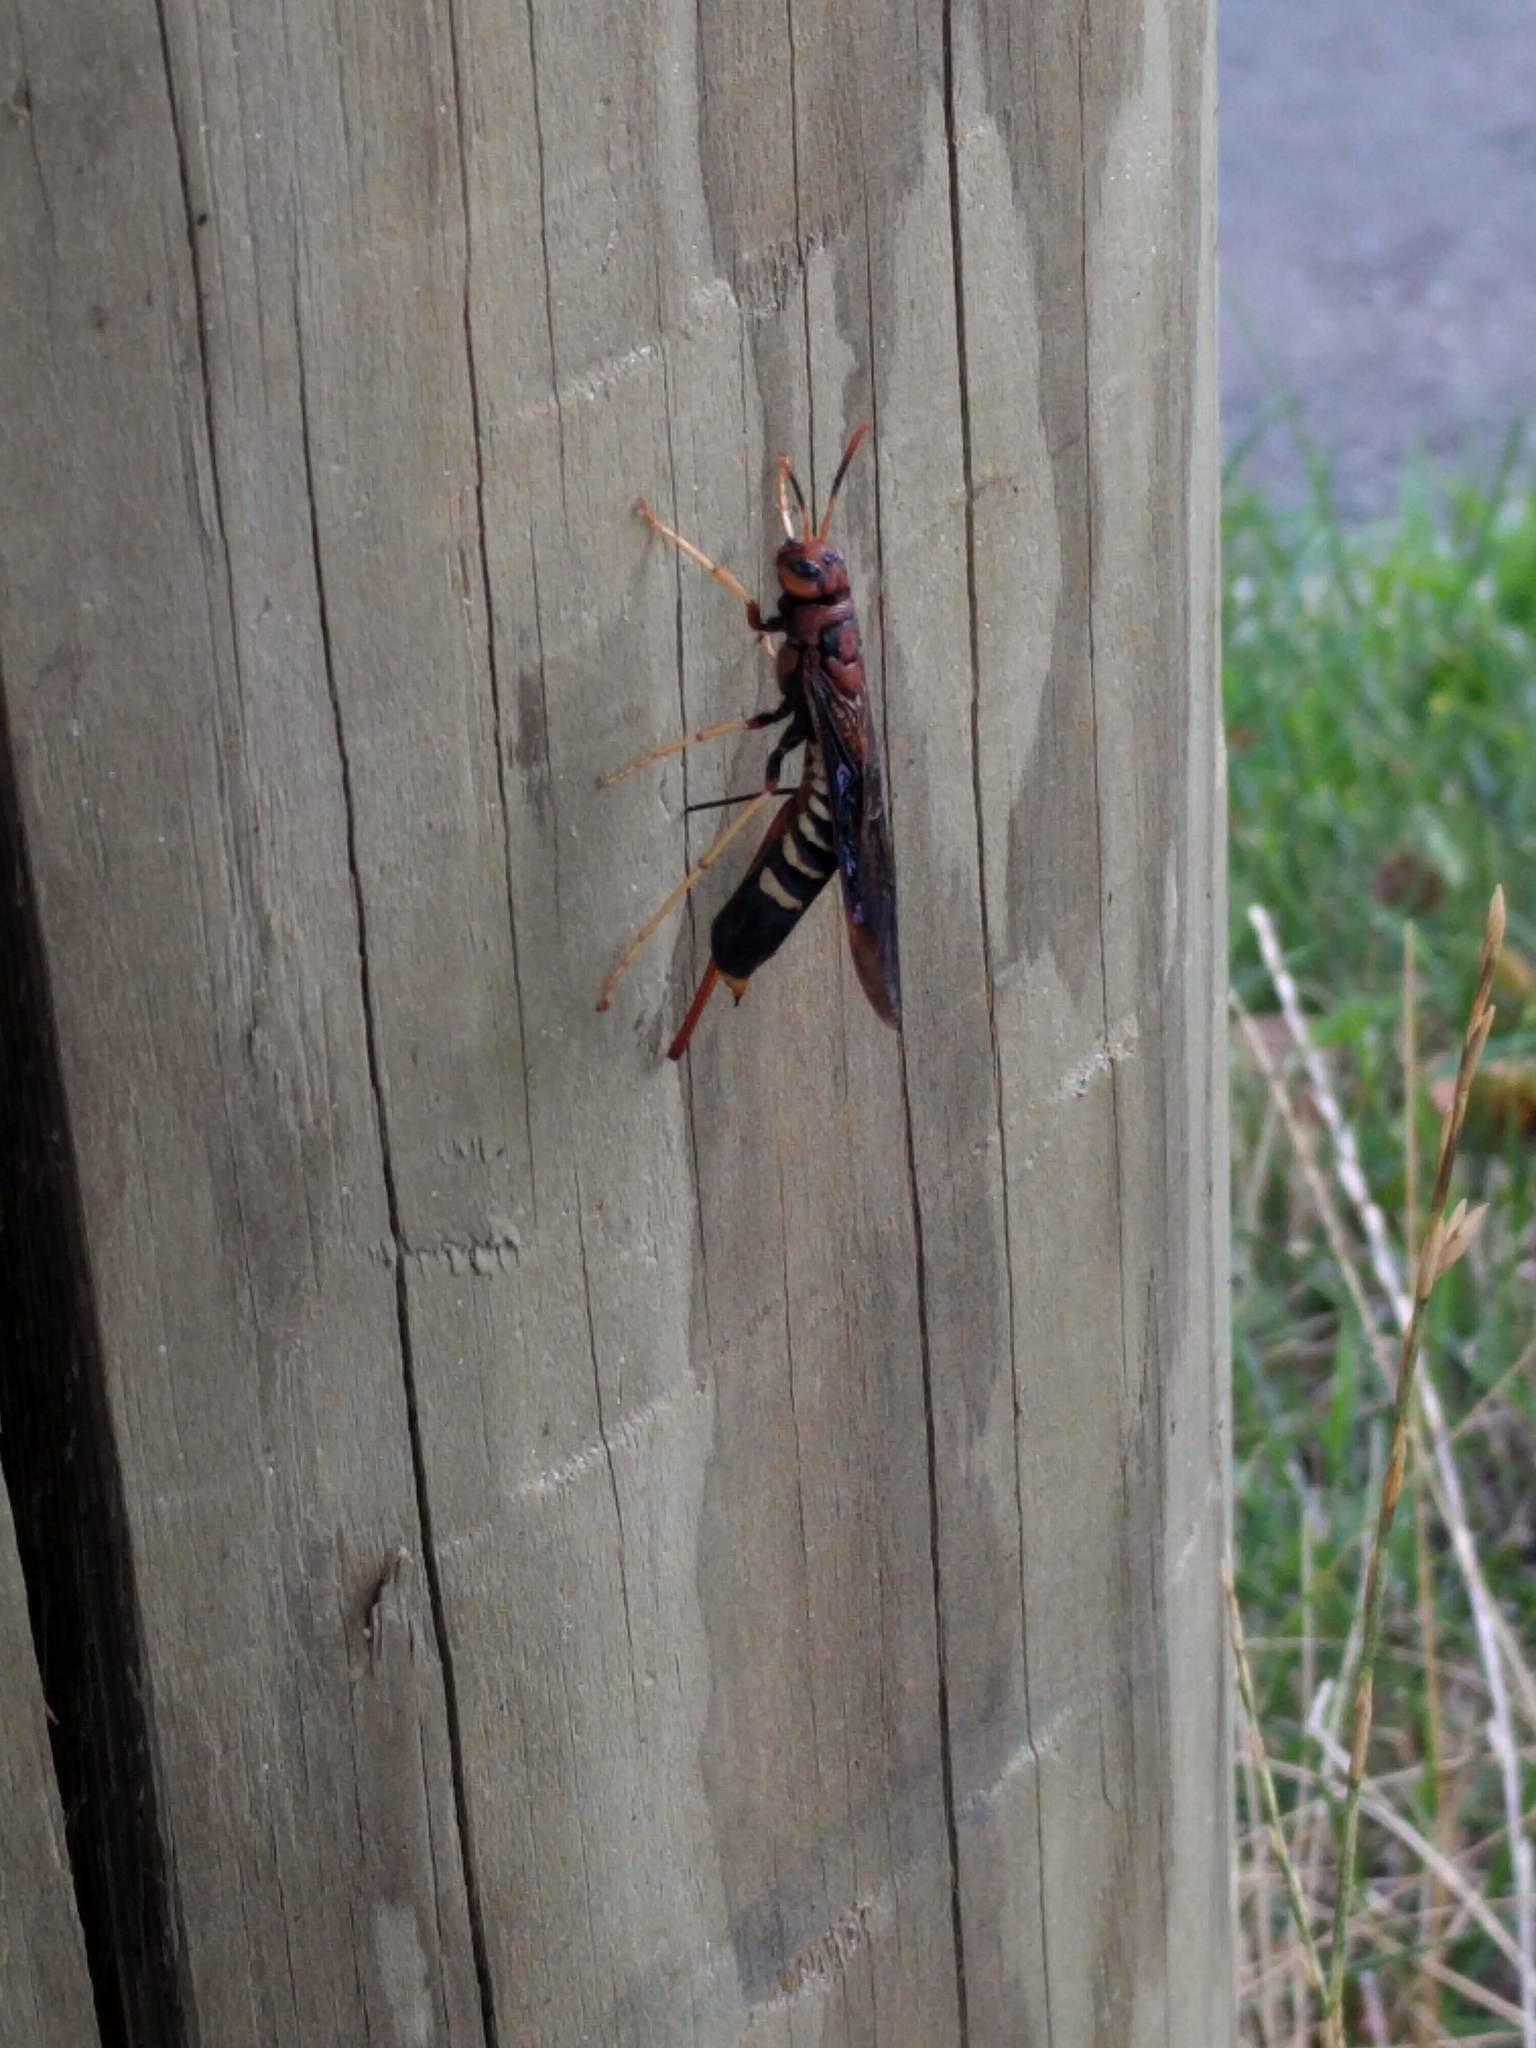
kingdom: Animalia
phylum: Arthropoda
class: Insecta
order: Hymenoptera
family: Siricidae
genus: Tremex
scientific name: Tremex columba
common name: Wasp
